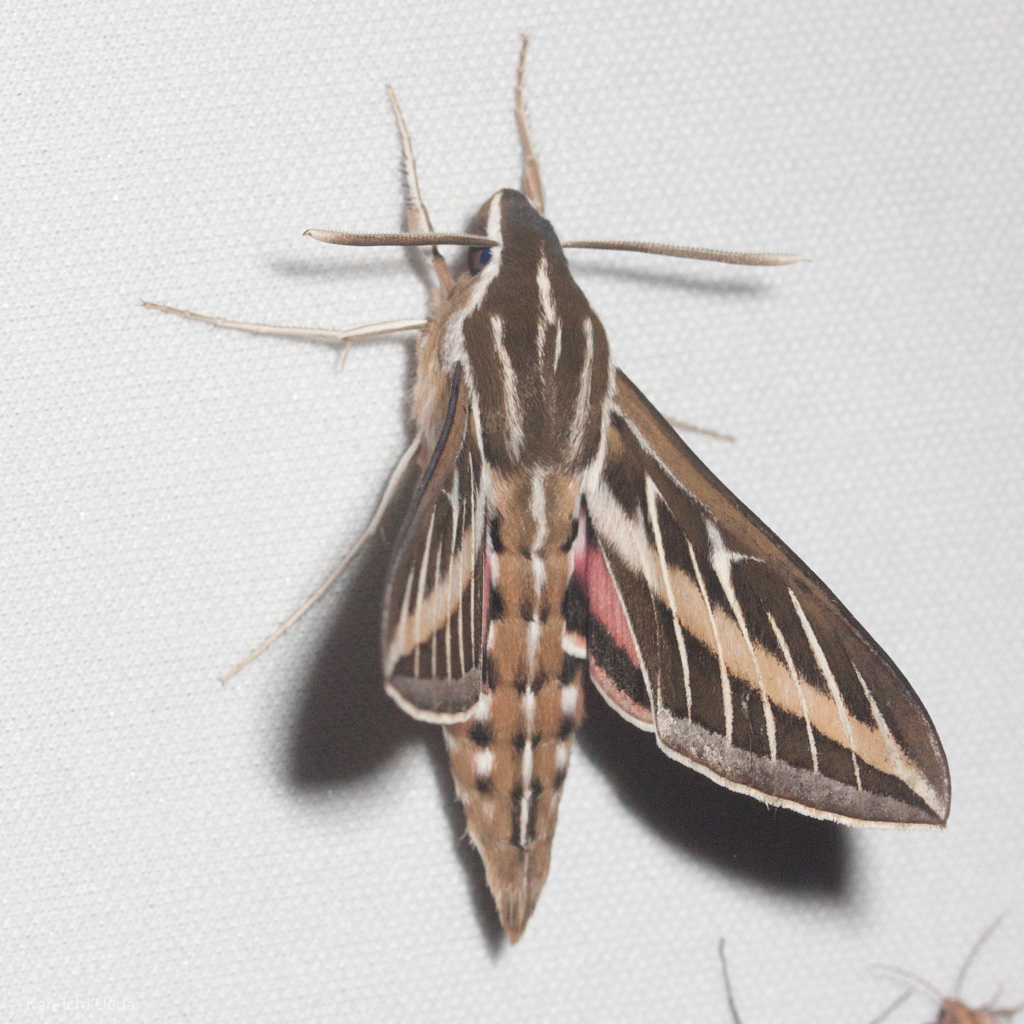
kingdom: Animalia
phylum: Arthropoda
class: Insecta
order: Lepidoptera
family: Sphingidae
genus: Hyles
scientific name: Hyles lineata
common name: White-lined sphinx
